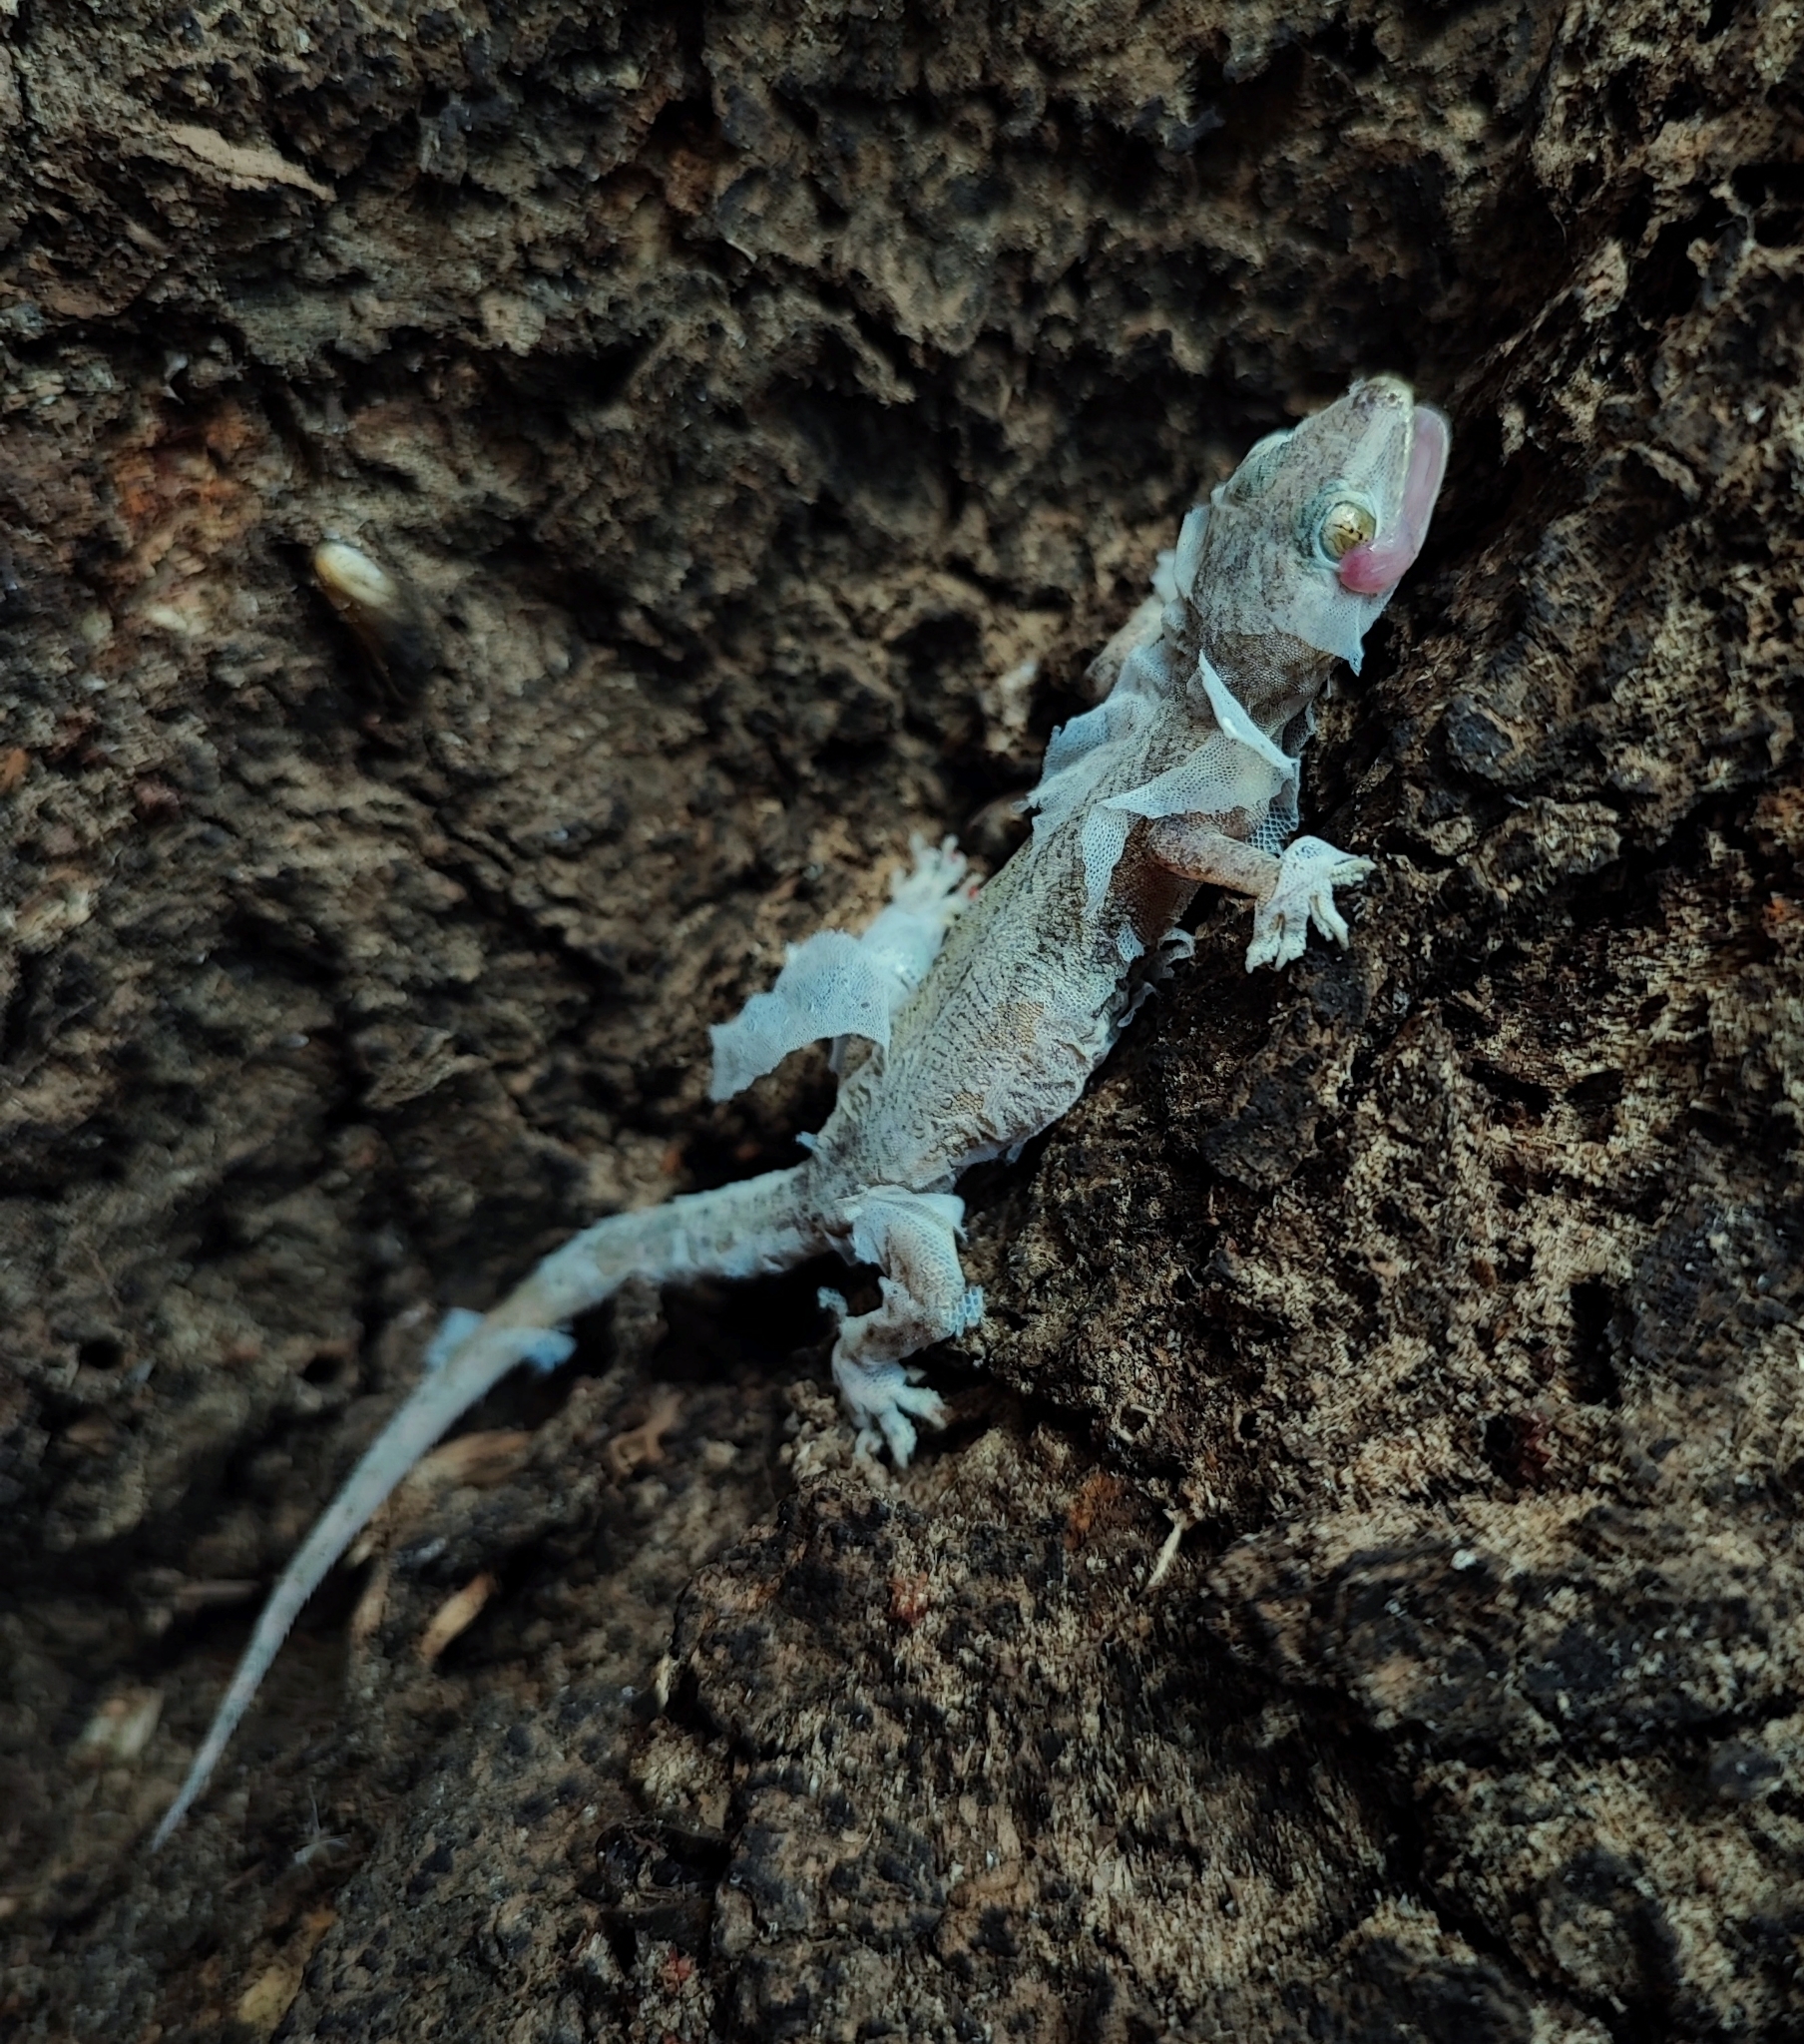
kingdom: Animalia
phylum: Chordata
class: Squamata
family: Gekkonidae
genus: Hemidactylus
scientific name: Hemidactylus frenatus
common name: Common house gecko
